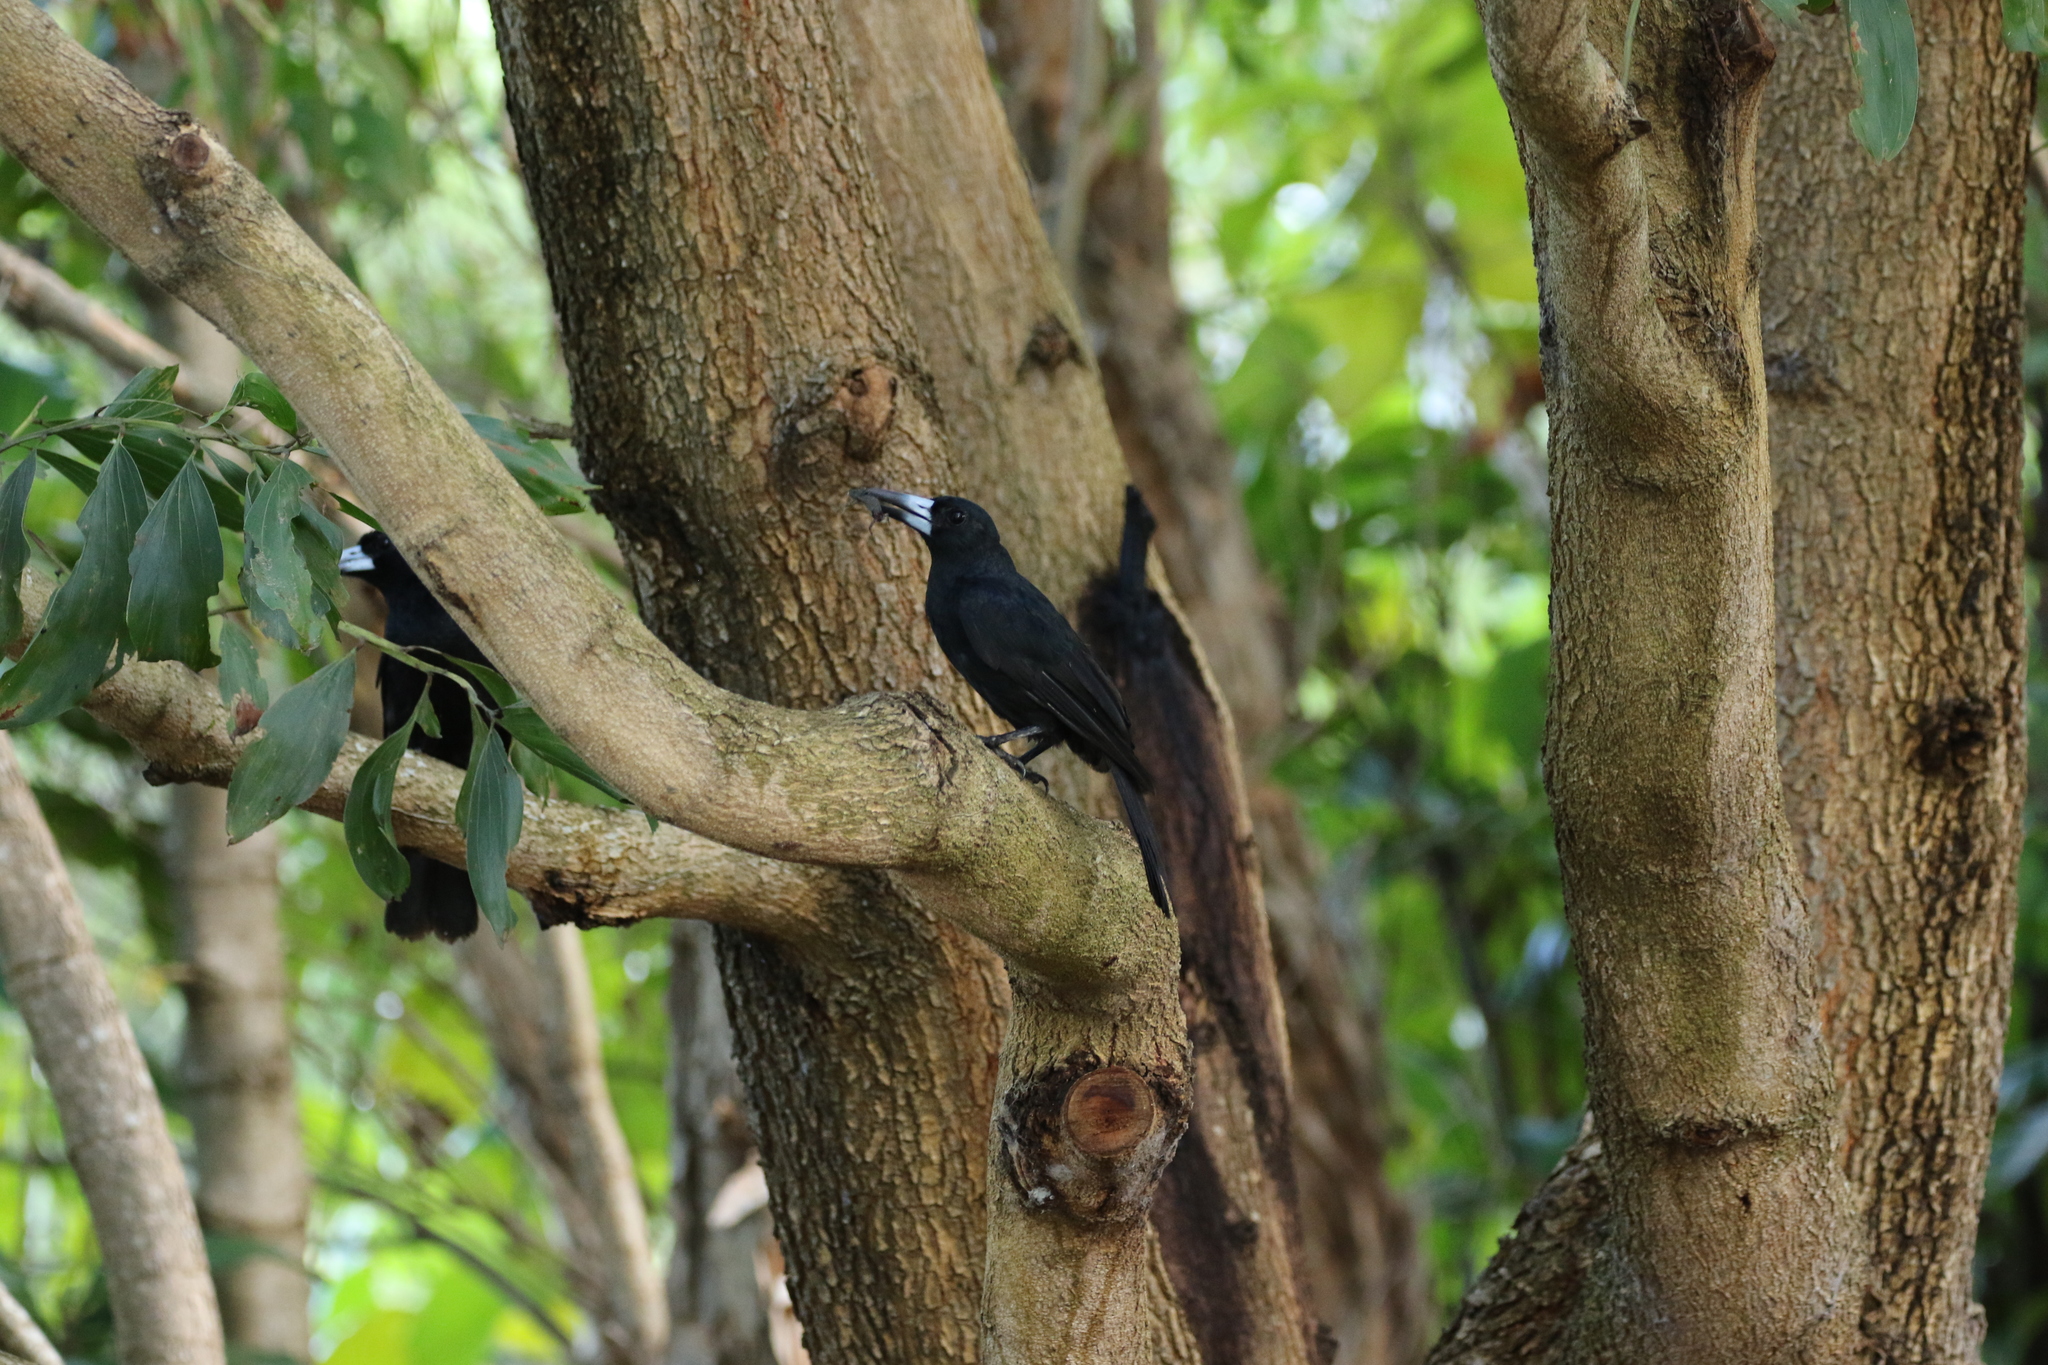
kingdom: Animalia
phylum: Chordata
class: Aves
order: Passeriformes
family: Artamidae
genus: Melloria
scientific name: Melloria quoyi
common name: Black butcherbird
